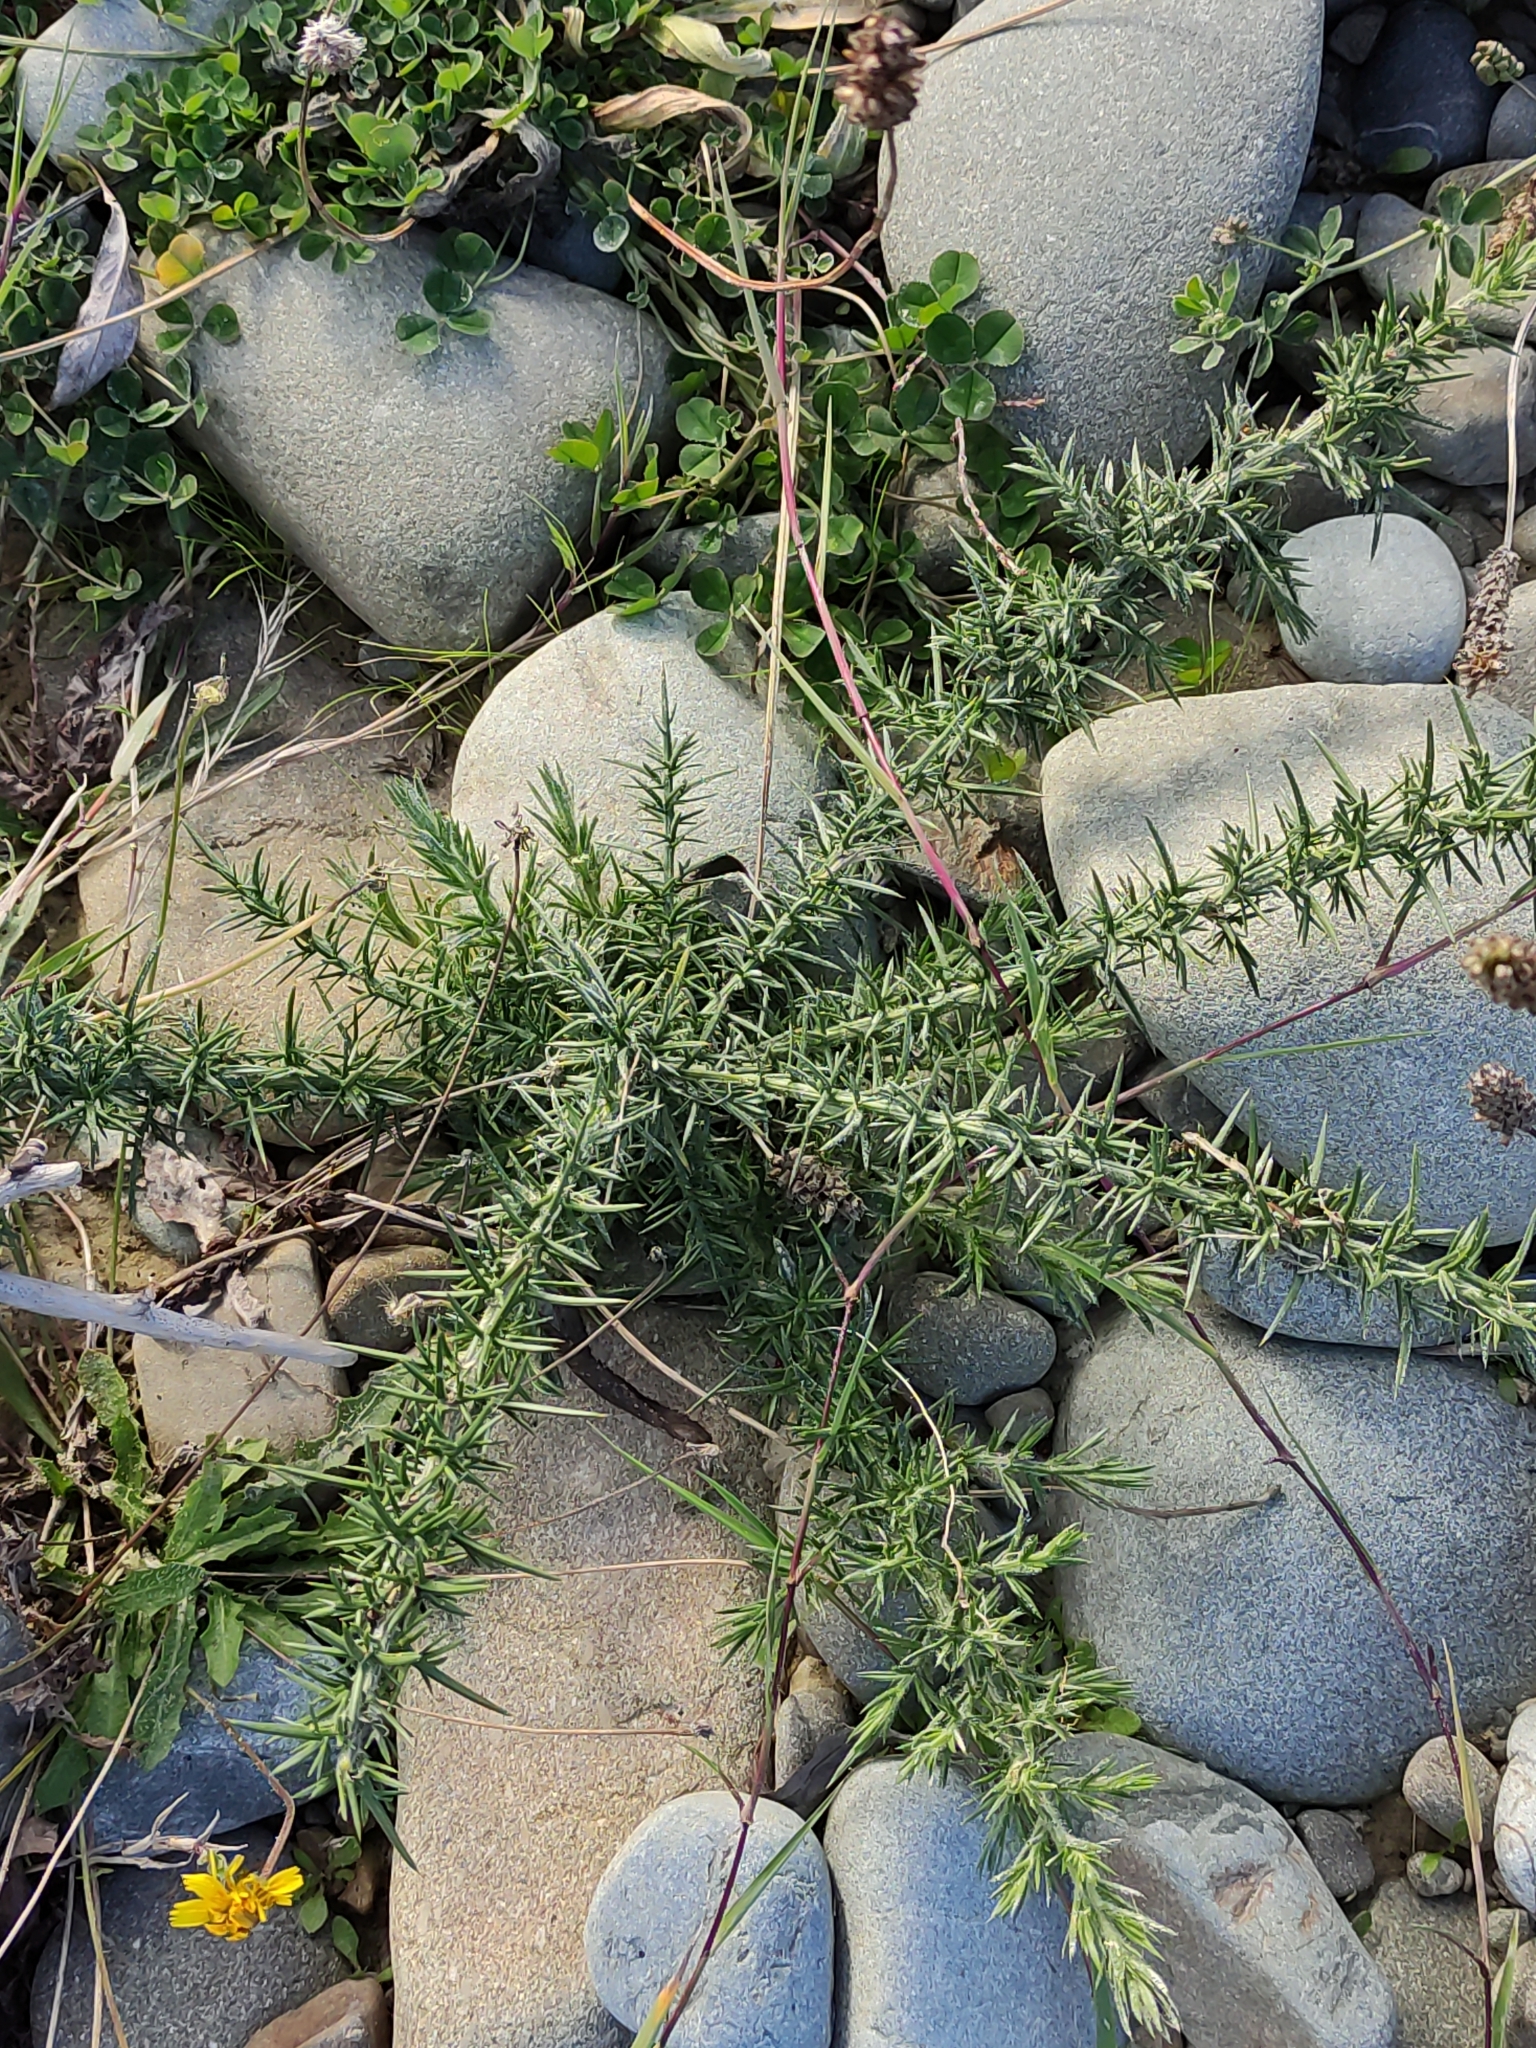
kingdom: Plantae
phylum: Tracheophyta
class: Magnoliopsida
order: Fabales
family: Fabaceae
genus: Ulex
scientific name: Ulex europaeus
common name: Common gorse
